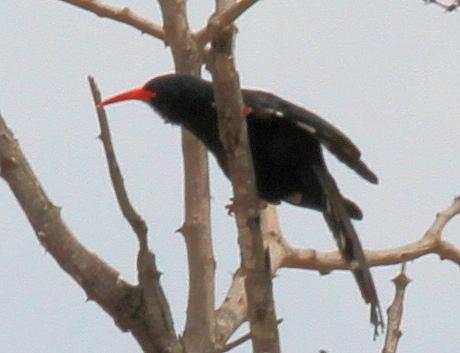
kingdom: Animalia
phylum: Chordata
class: Aves
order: Bucerotiformes
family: Phoeniculidae
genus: Phoeniculus
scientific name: Phoeniculus purpureus
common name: Green woodhoopoe
